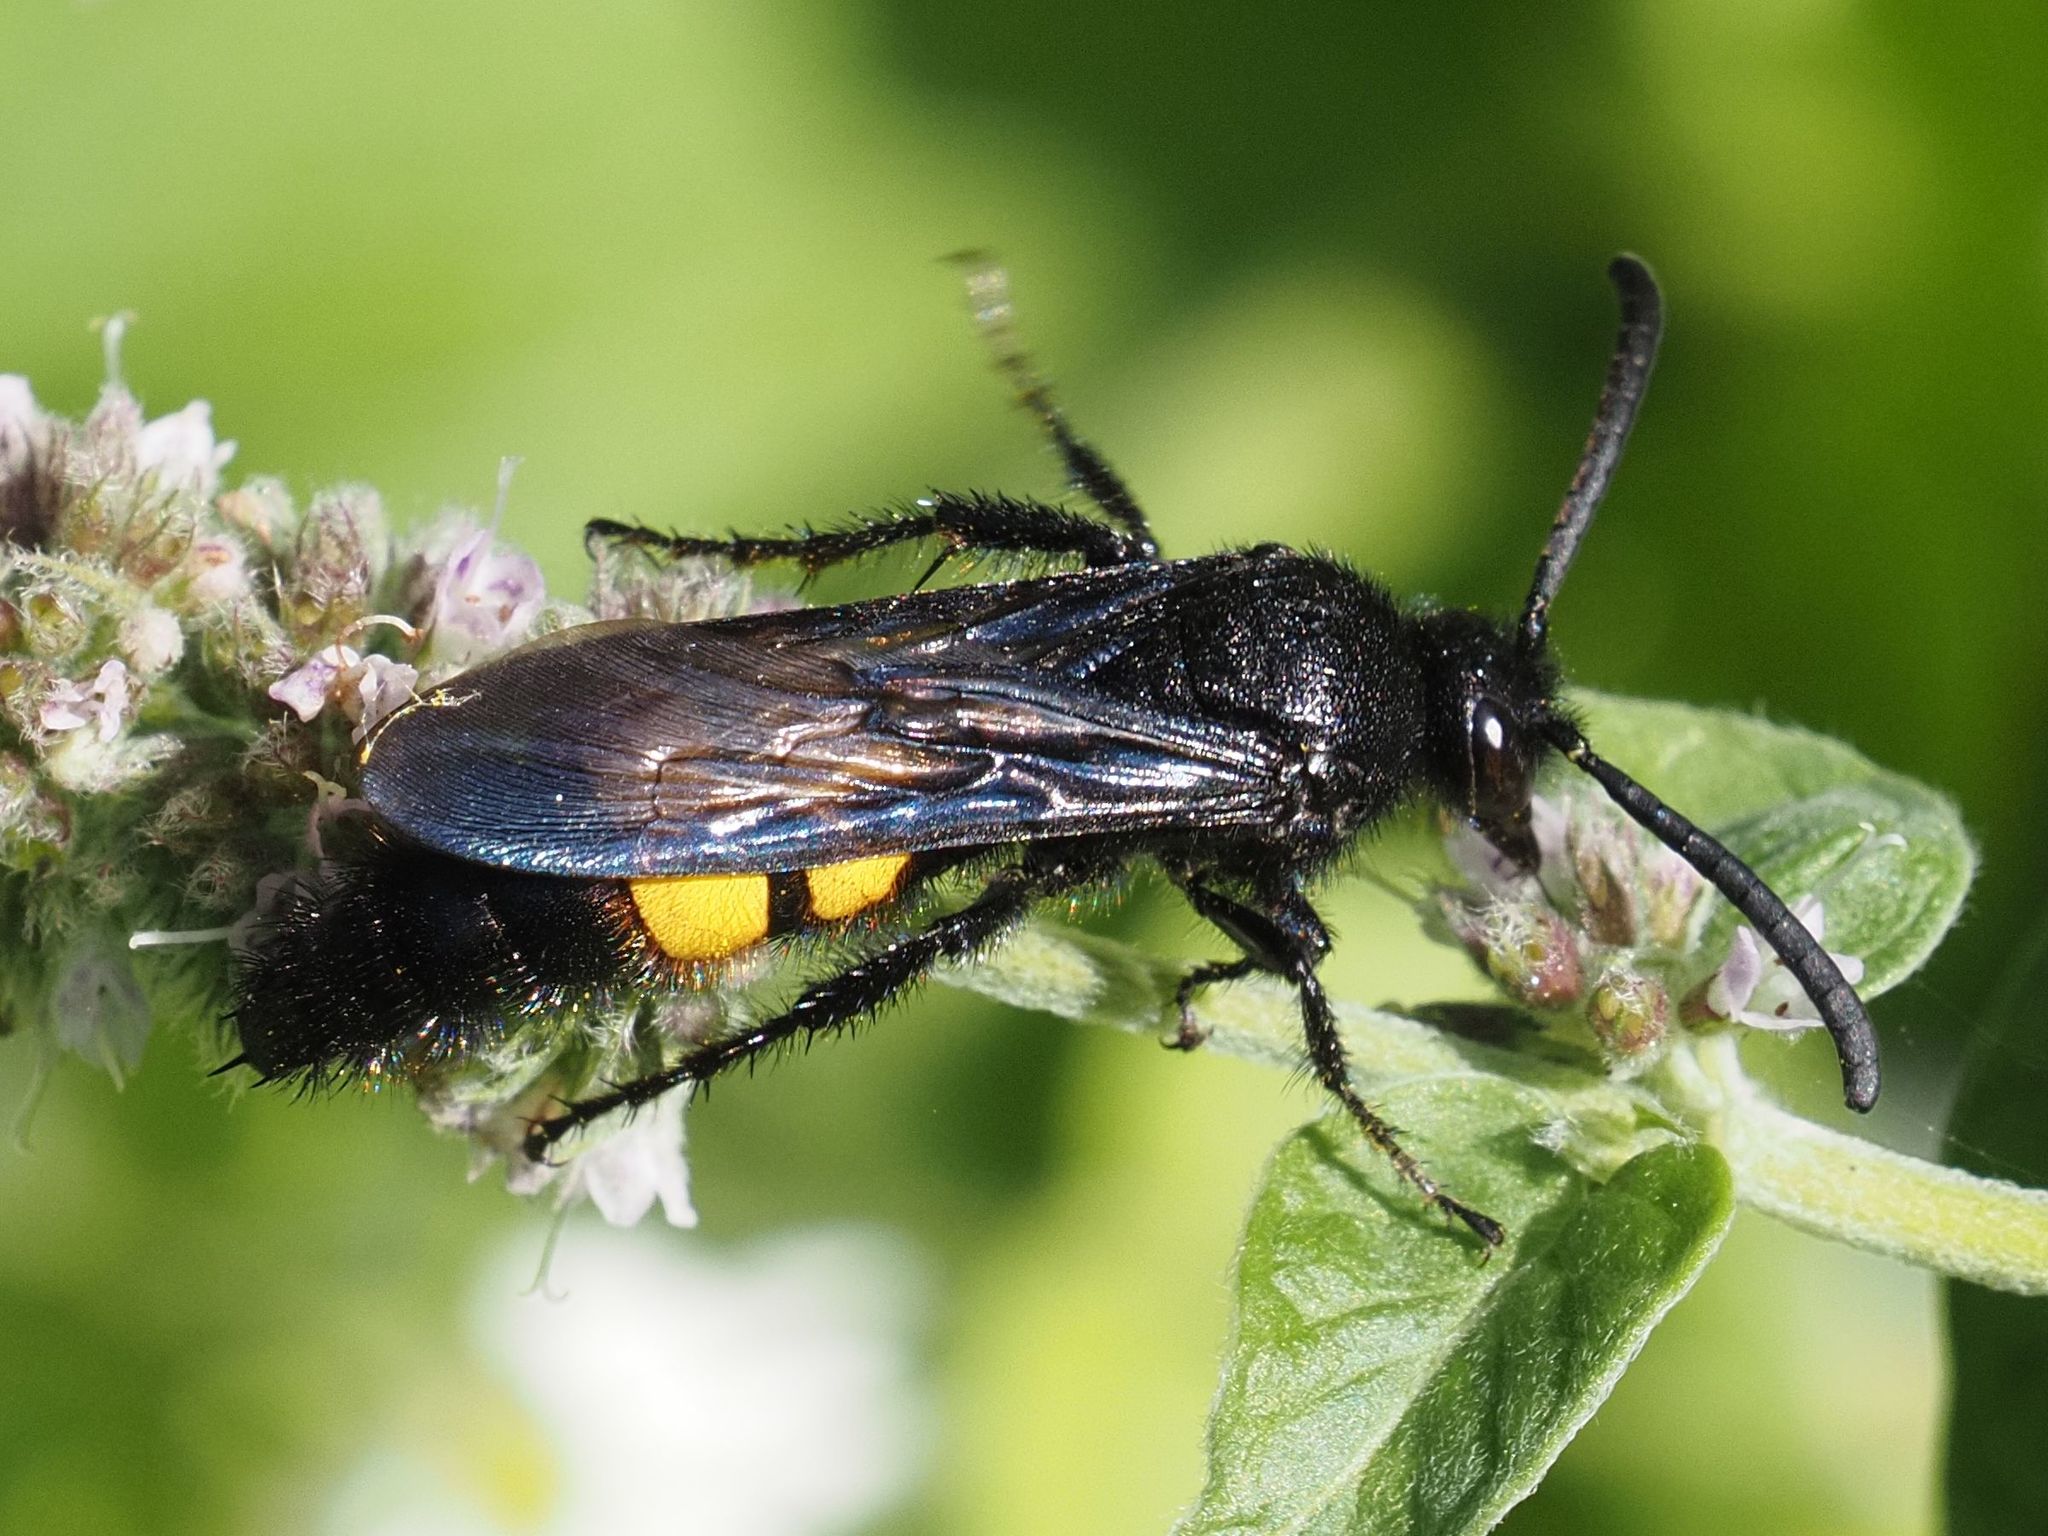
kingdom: Animalia
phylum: Arthropoda
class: Insecta
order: Hymenoptera
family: Scoliidae
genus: Scolia
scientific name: Scolia hirta
